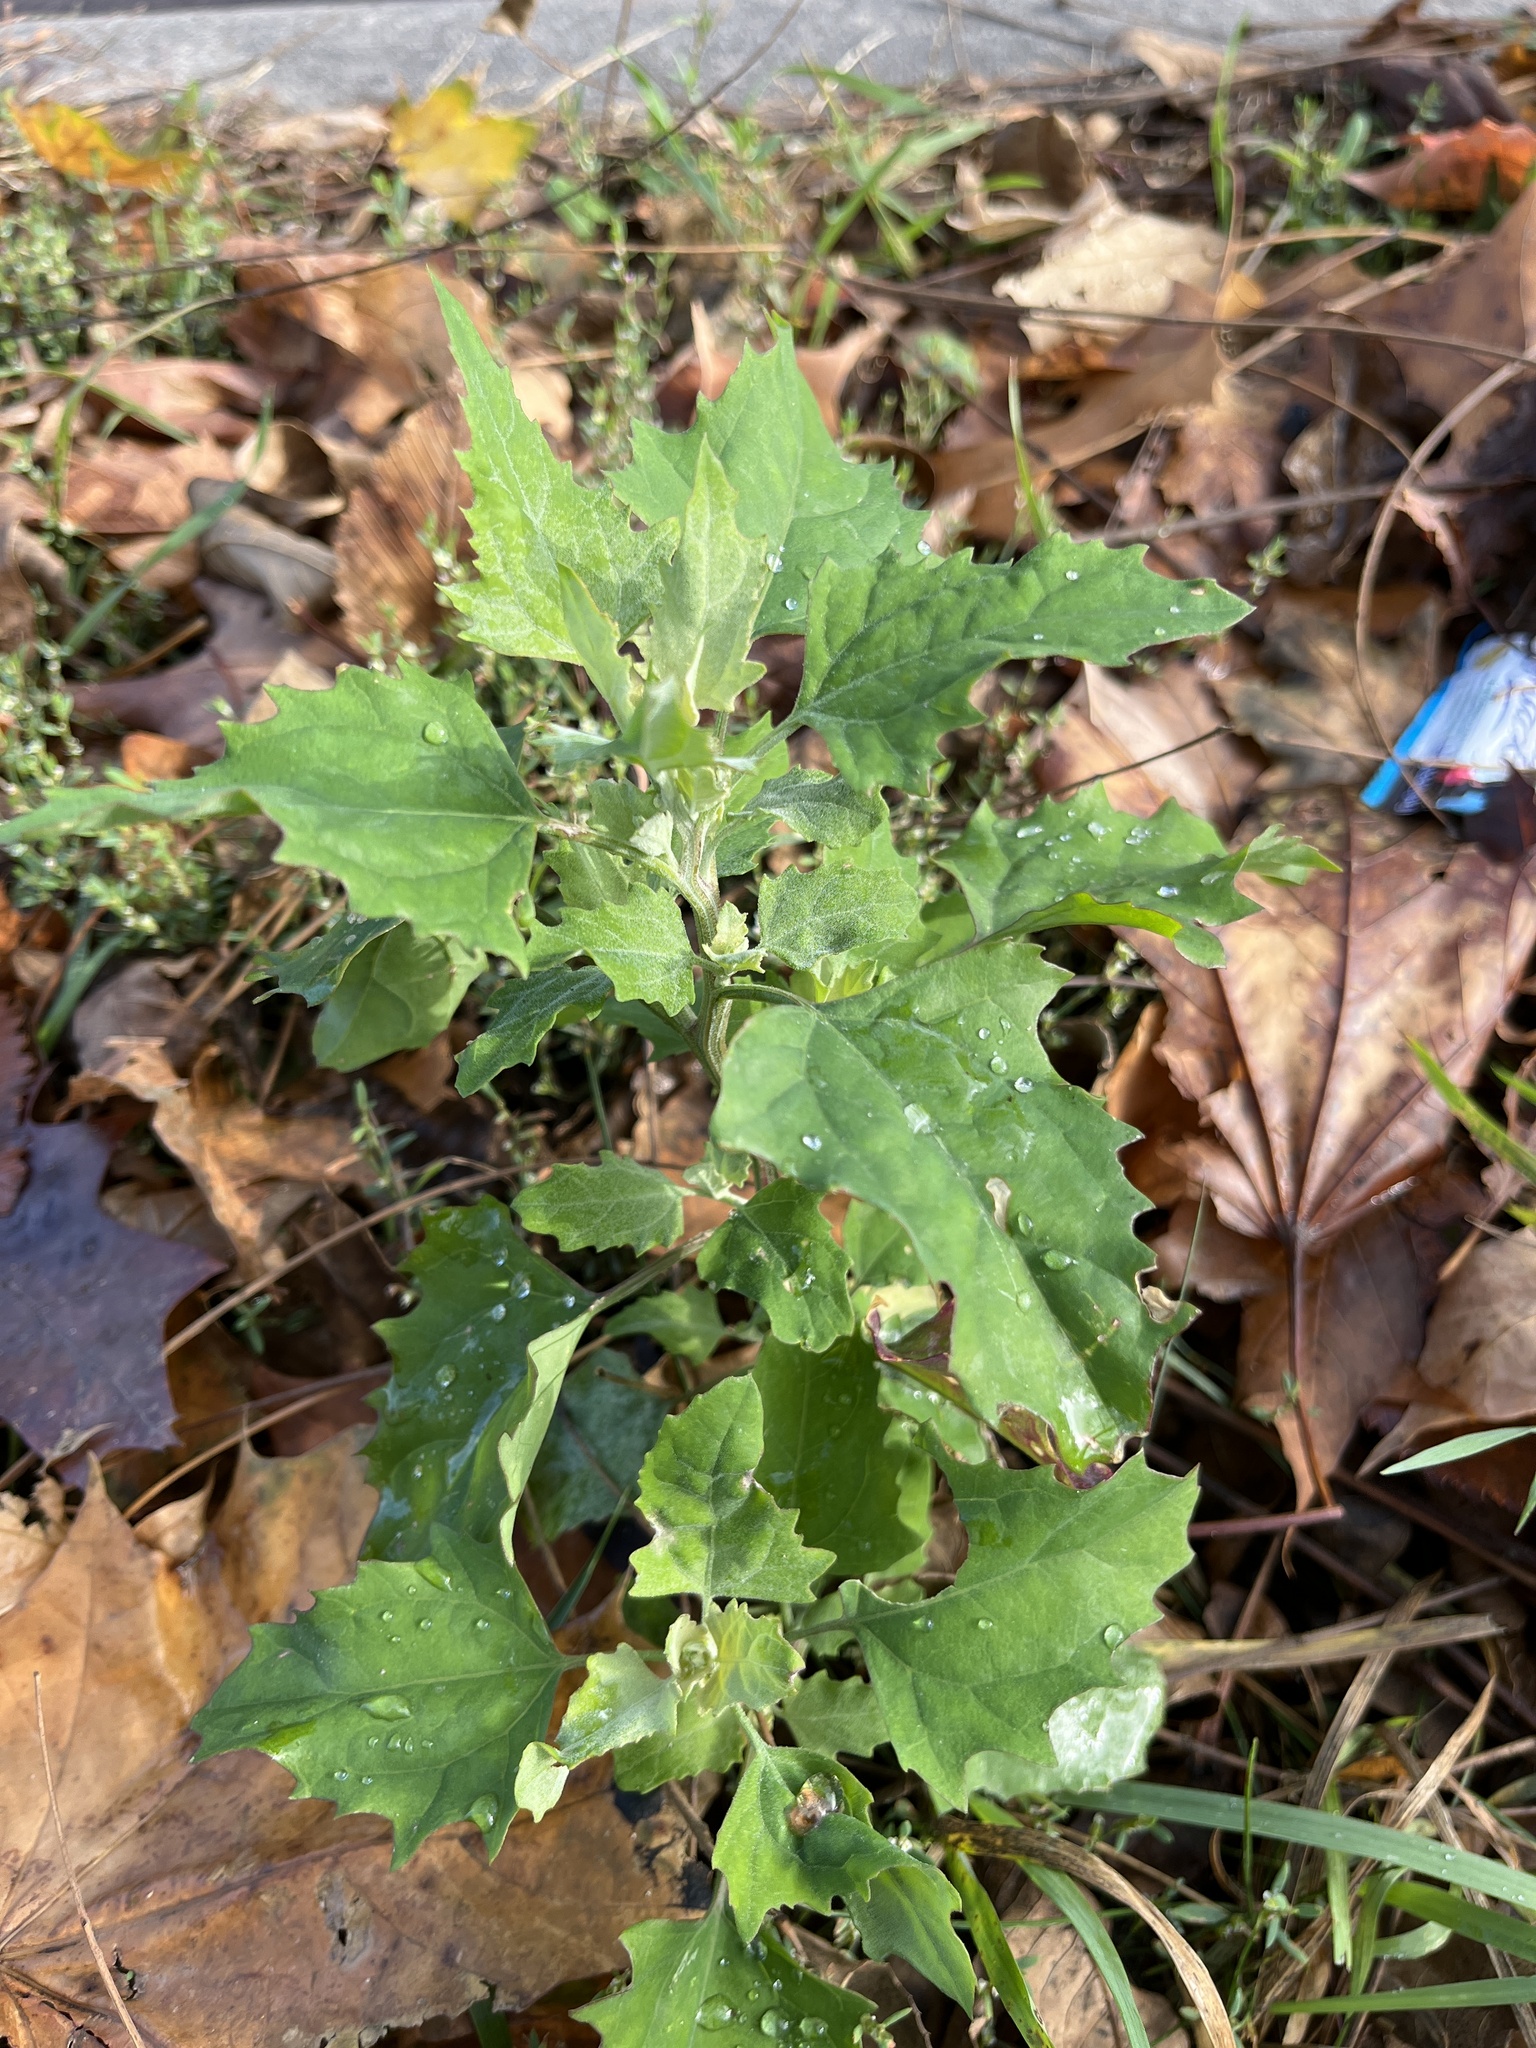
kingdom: Plantae
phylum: Tracheophyta
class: Magnoliopsida
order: Caryophyllales
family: Amaranthaceae
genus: Chenopodium
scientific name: Chenopodium album
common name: Fat-hen
